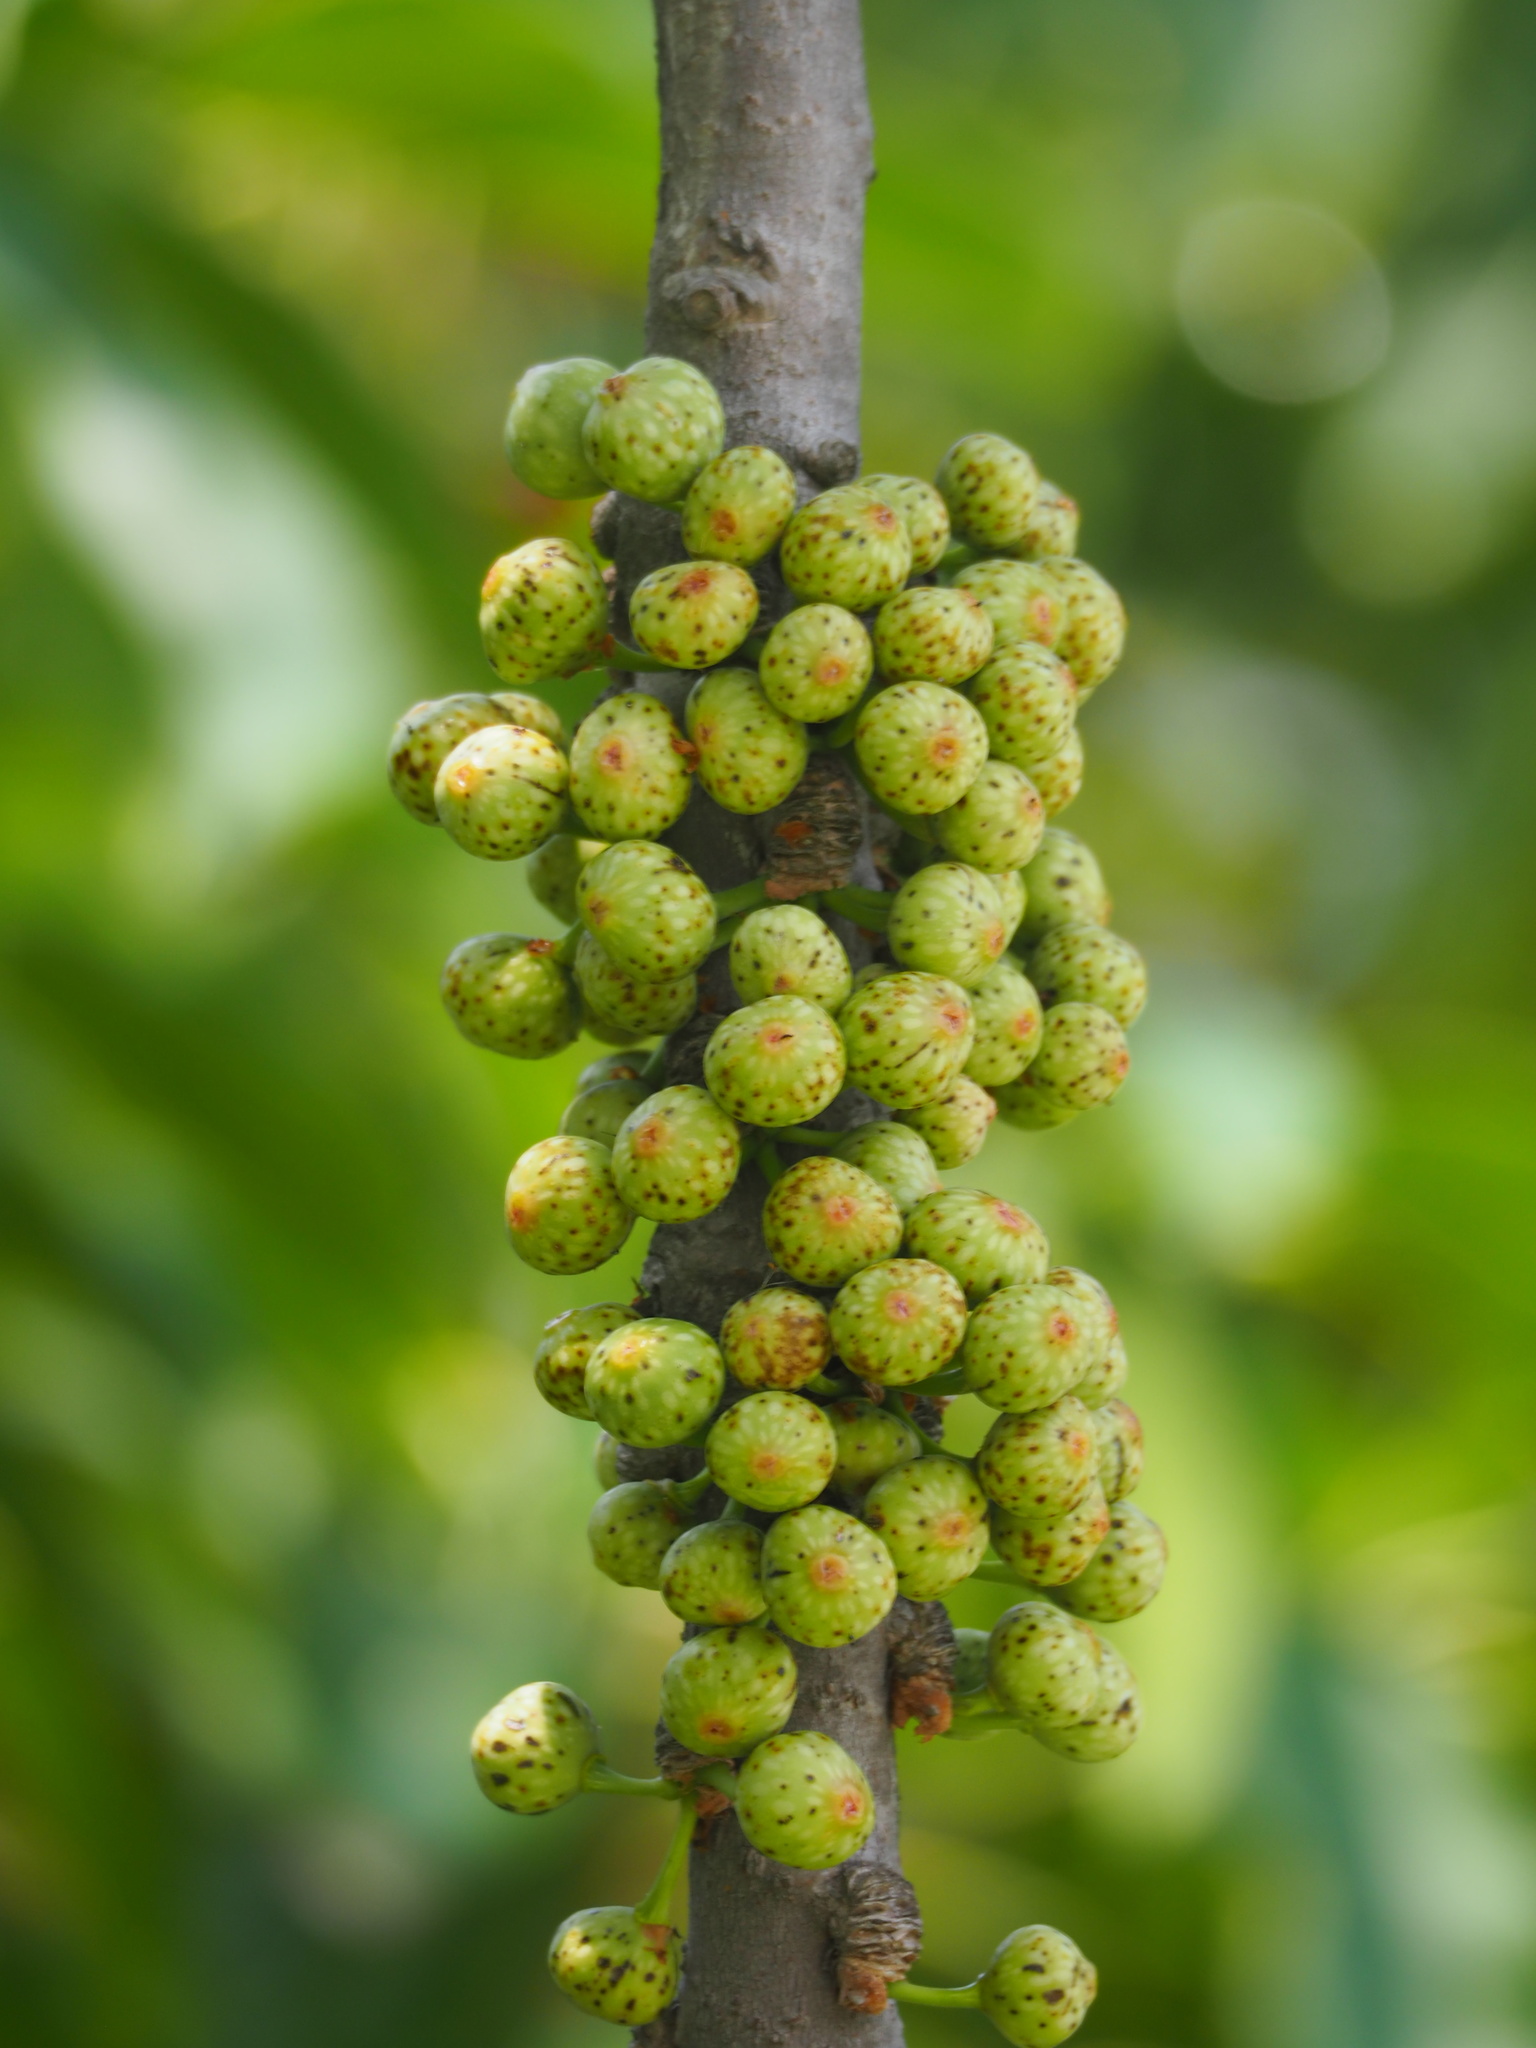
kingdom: Plantae
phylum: Tracheophyta
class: Magnoliopsida
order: Rosales
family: Moraceae
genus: Ficus
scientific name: Ficus subpisocarpa
